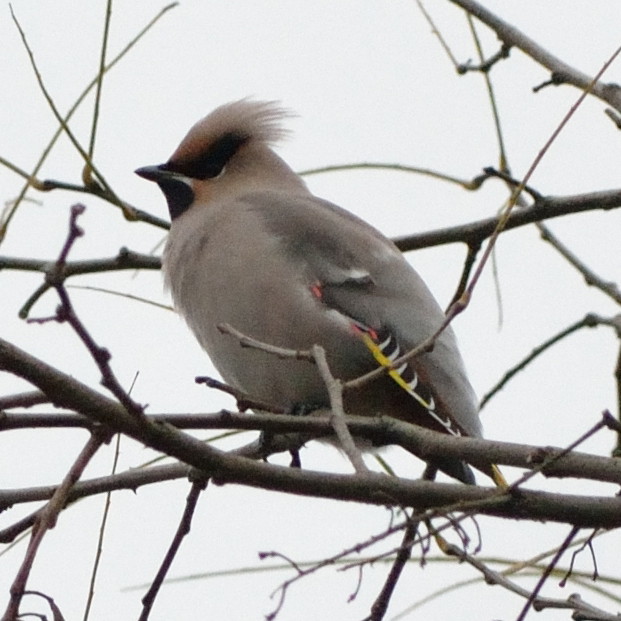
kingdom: Animalia
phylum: Chordata
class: Aves
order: Passeriformes
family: Bombycillidae
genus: Bombycilla
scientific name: Bombycilla garrulus
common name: Bohemian waxwing
